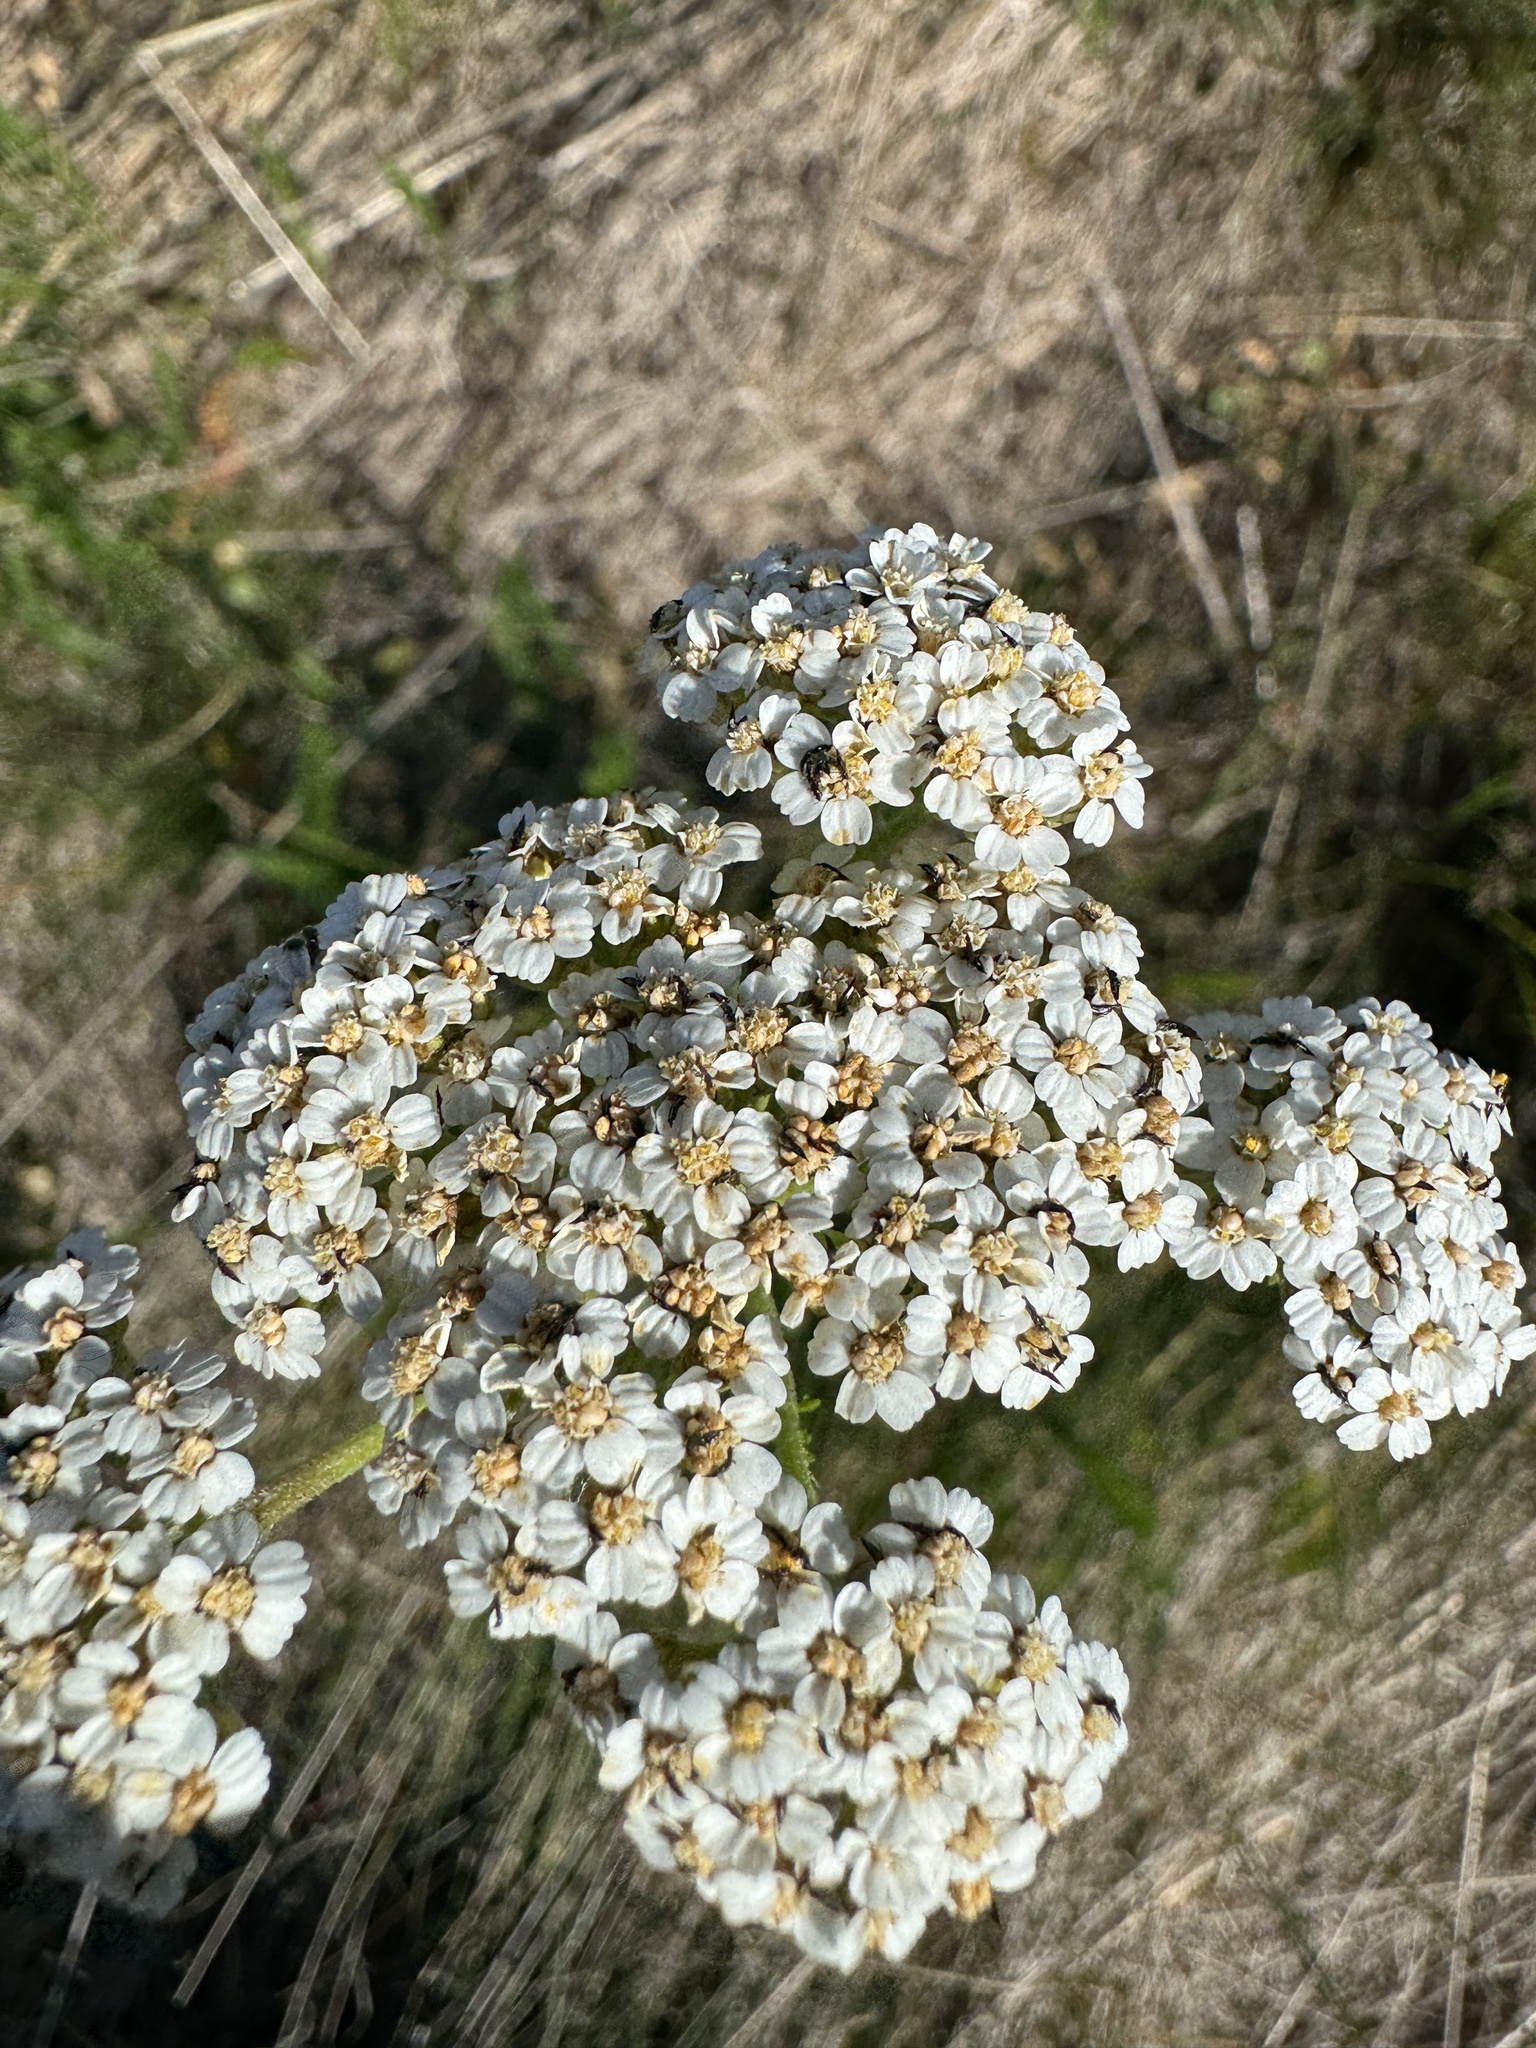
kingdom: Plantae
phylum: Tracheophyta
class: Magnoliopsida
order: Asterales
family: Asteraceae
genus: Achillea
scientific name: Achillea millefolium
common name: Yarrow
